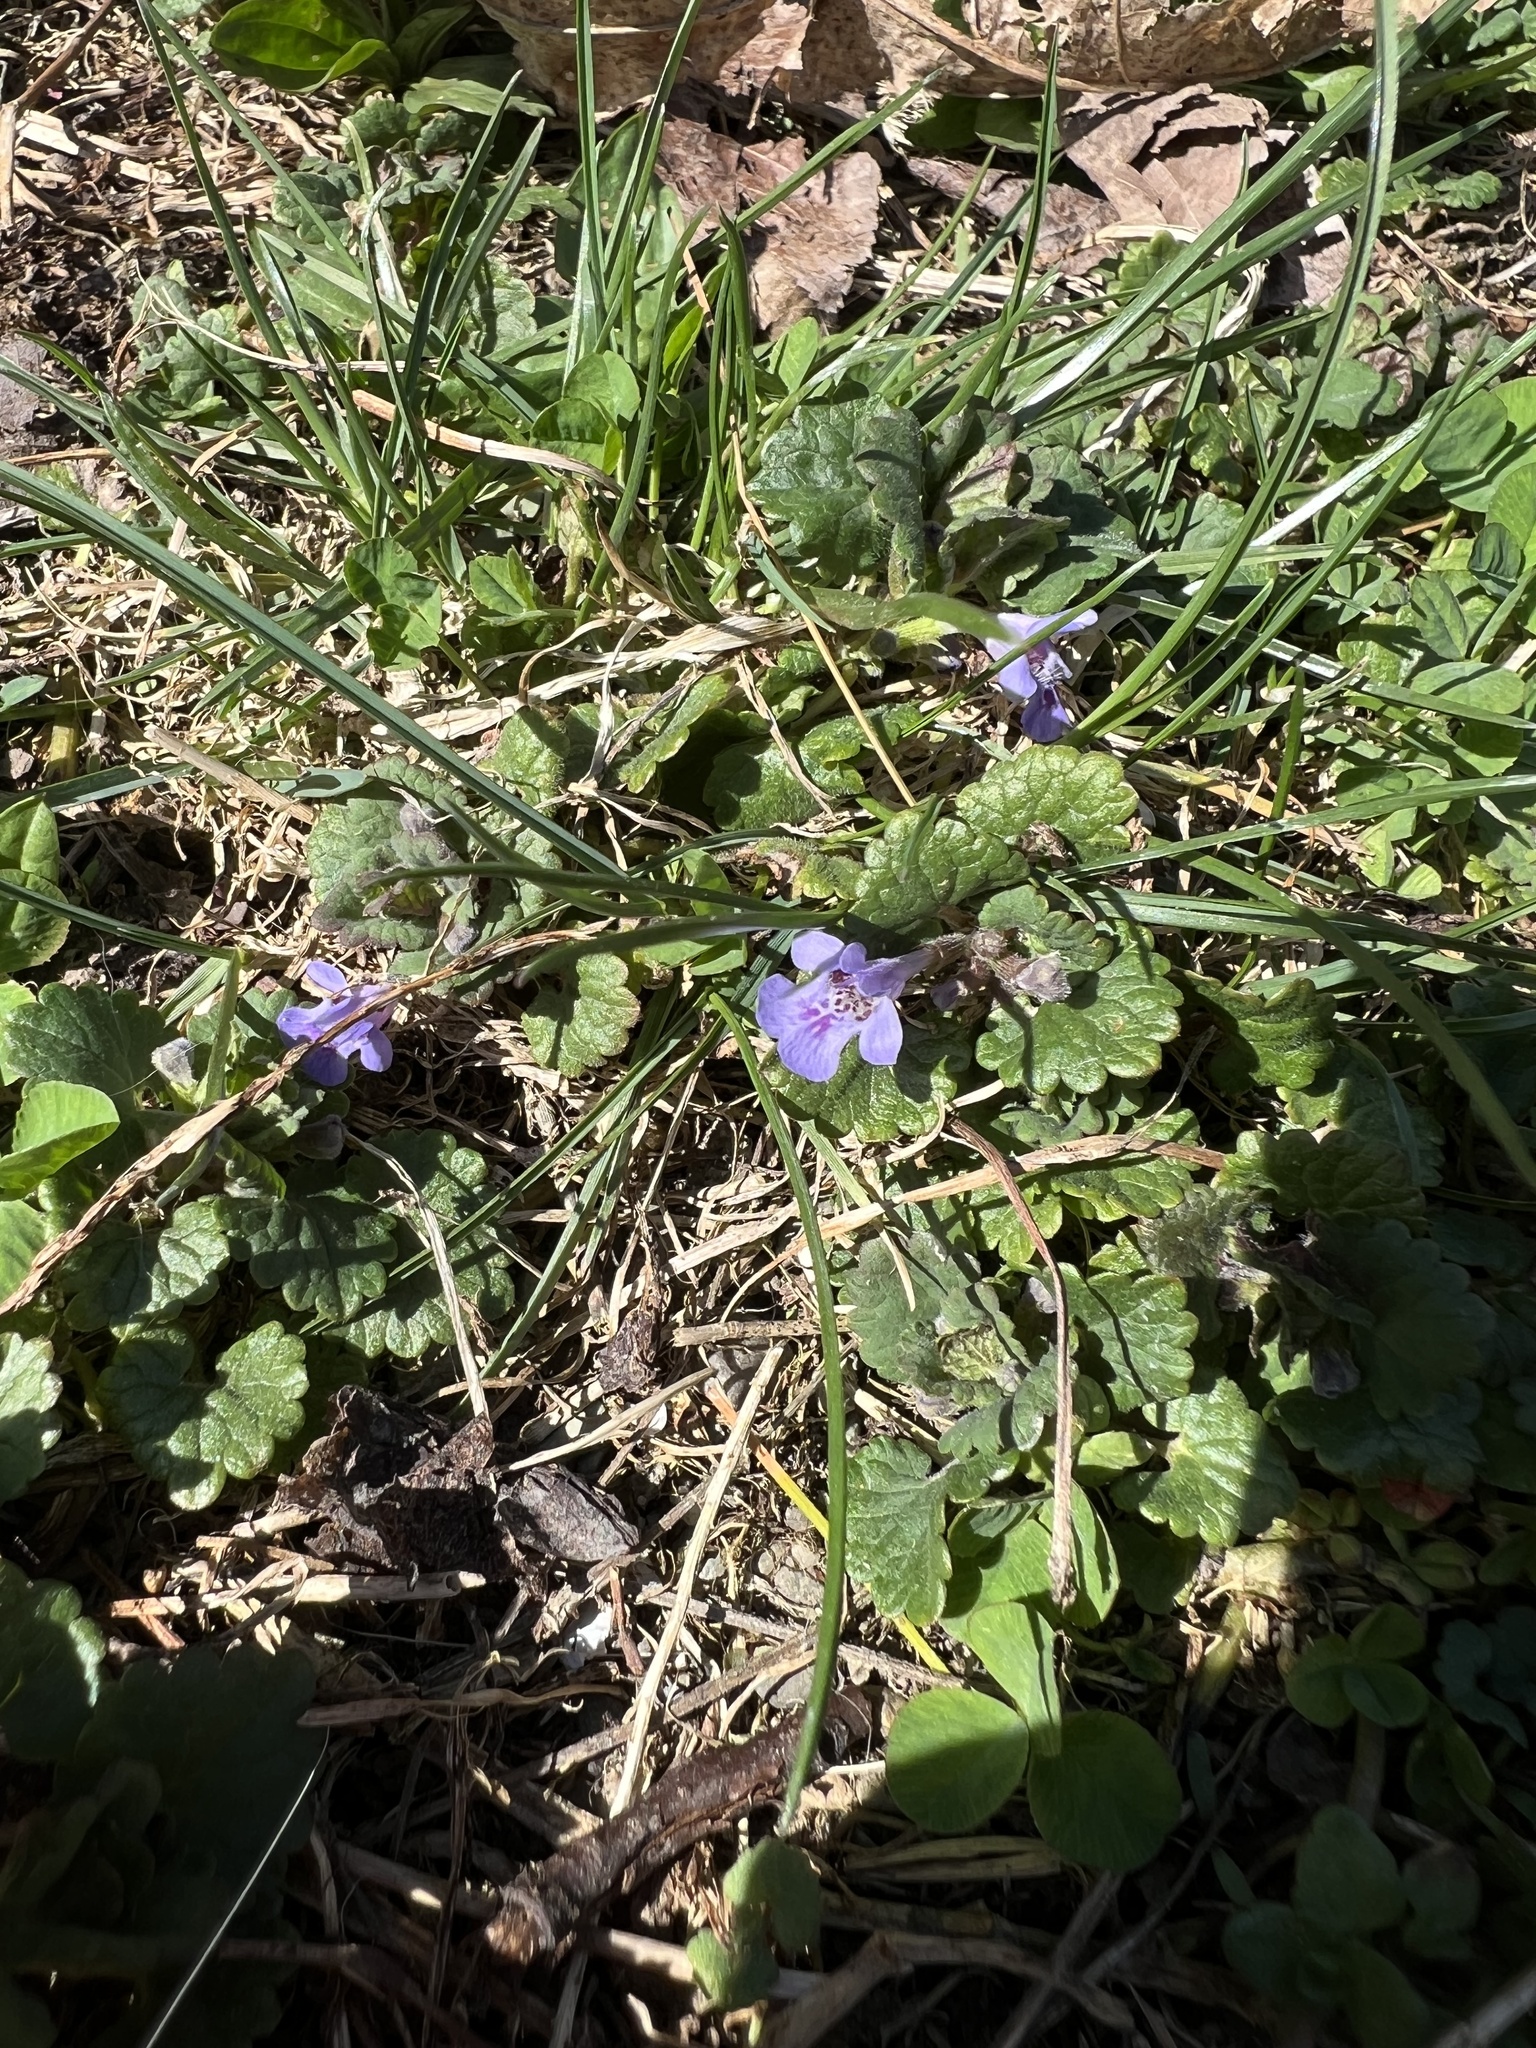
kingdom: Plantae
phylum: Tracheophyta
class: Magnoliopsida
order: Lamiales
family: Lamiaceae
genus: Glechoma
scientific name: Glechoma hederacea
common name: Ground ivy
